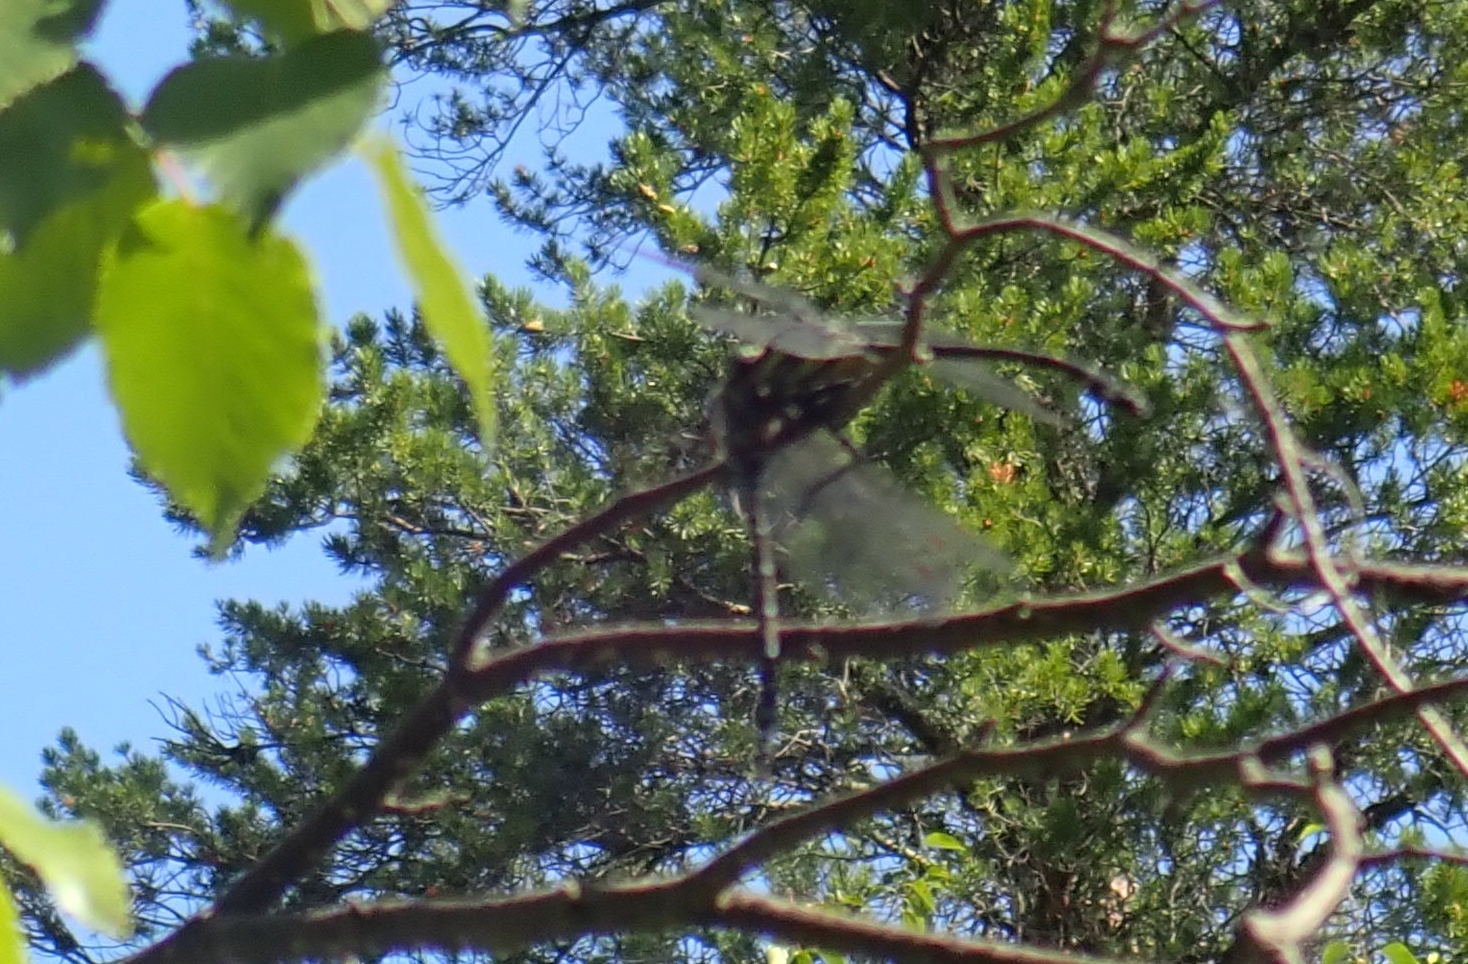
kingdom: Animalia
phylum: Arthropoda
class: Insecta
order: Odonata
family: Gomphidae
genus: Hagenius
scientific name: Hagenius brevistylus
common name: Dragonhunter
